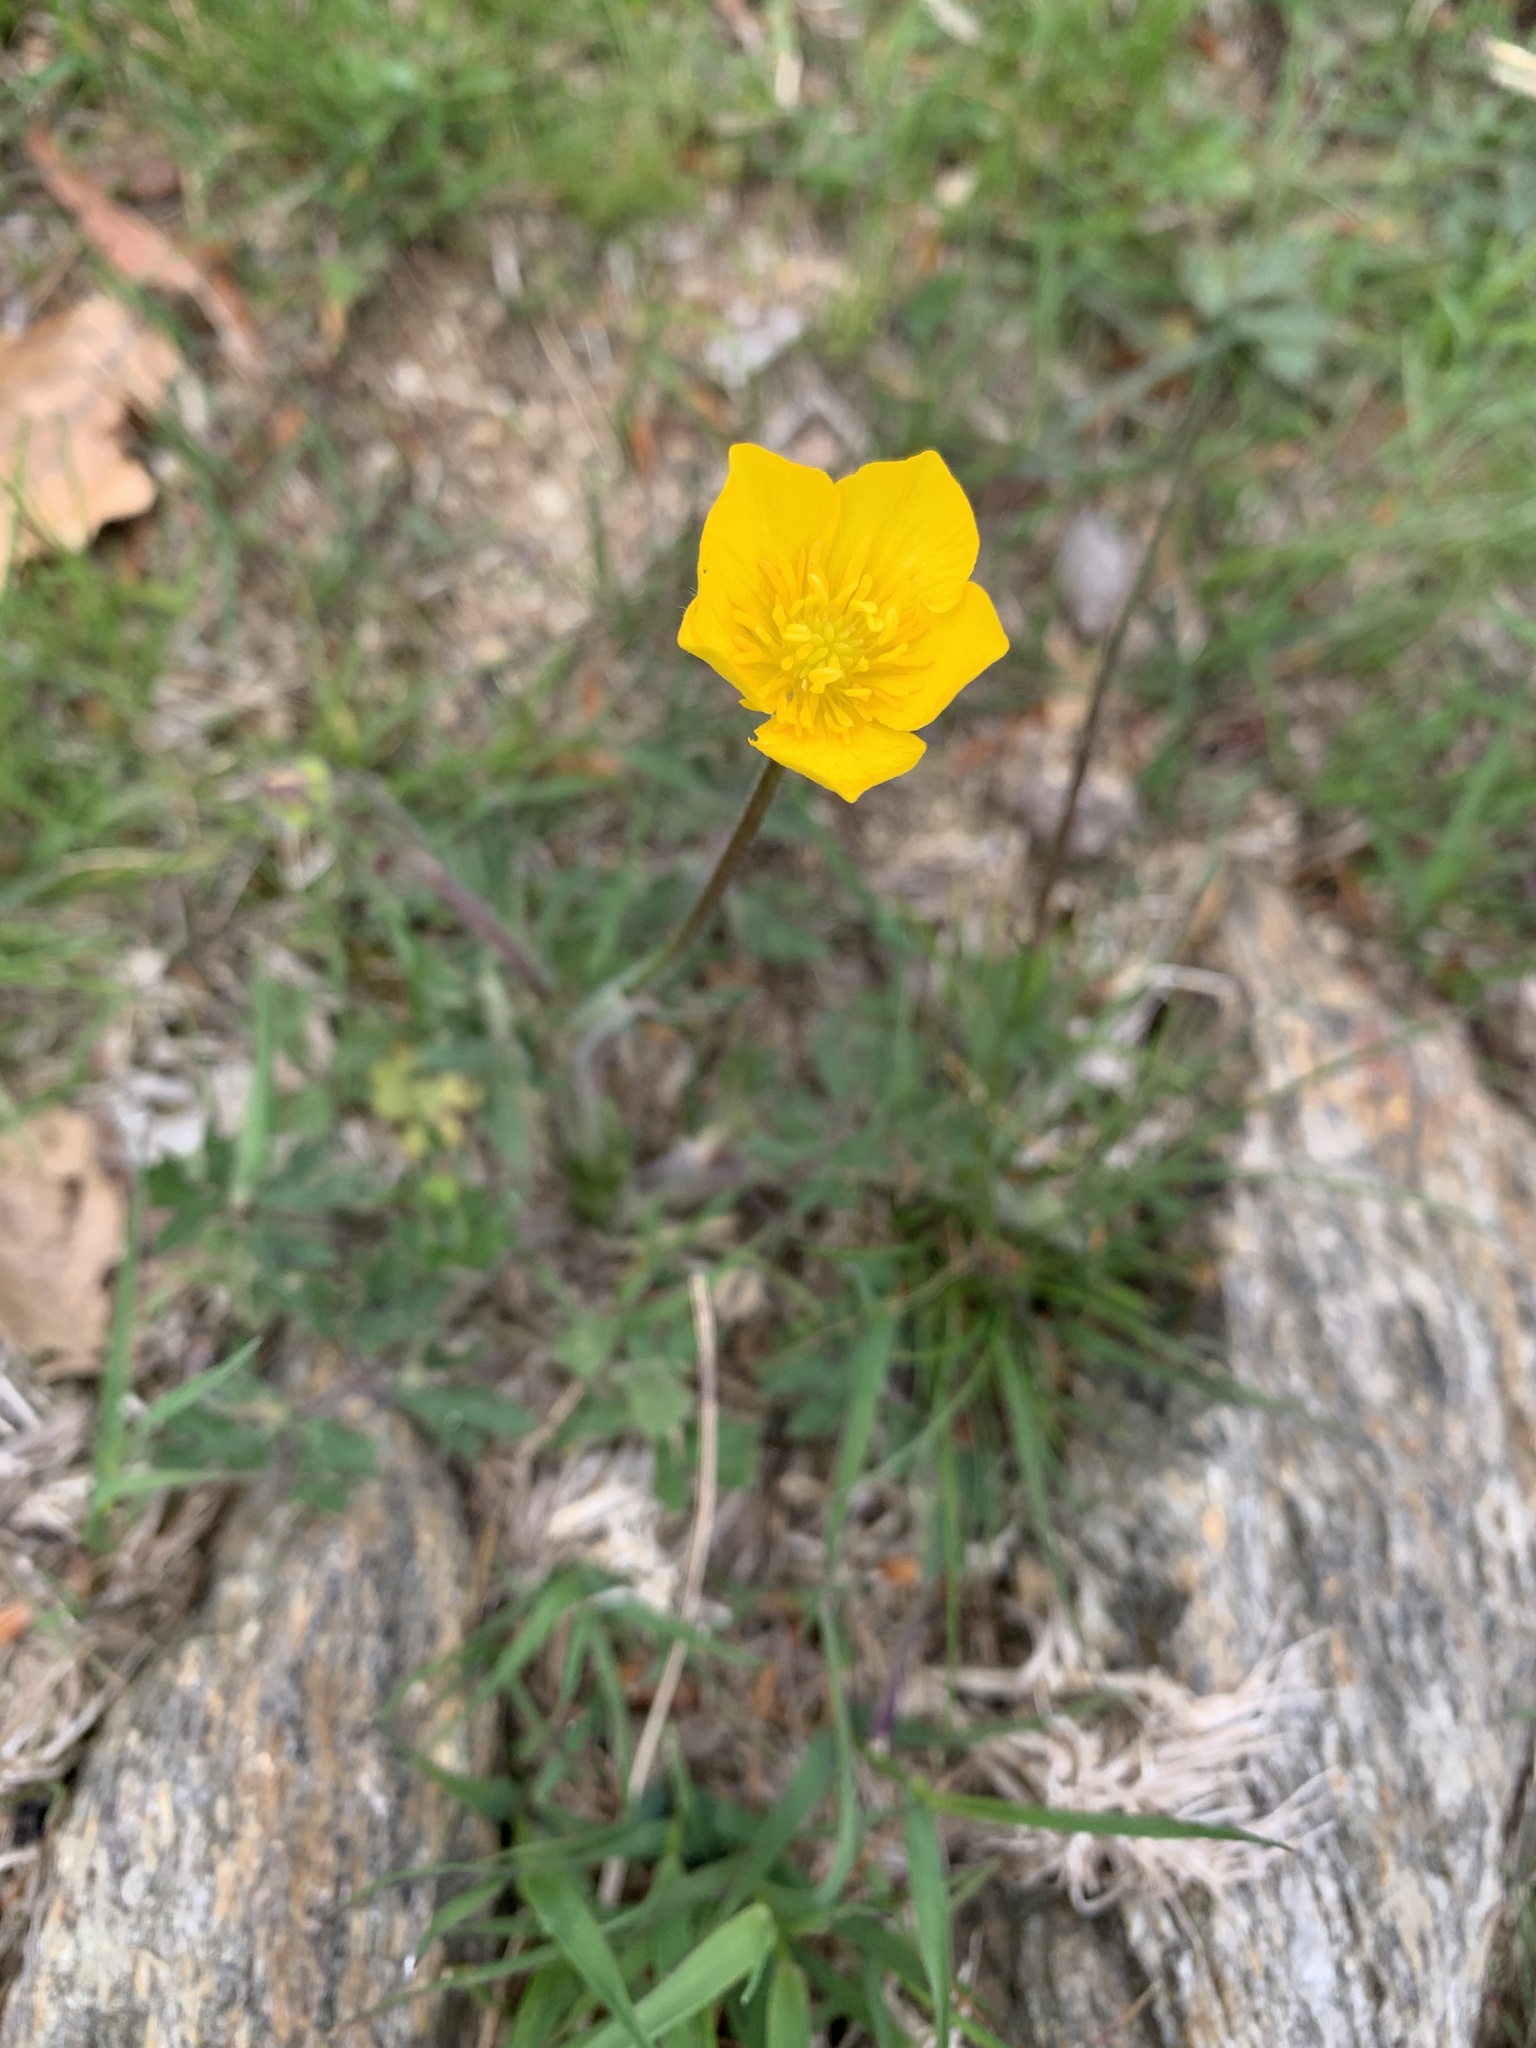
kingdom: Plantae
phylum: Tracheophyta
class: Magnoliopsida
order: Ranunculales
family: Ranunculaceae
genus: Ranunculus
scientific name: Ranunculus bulbosus
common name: Bulbous buttercup
